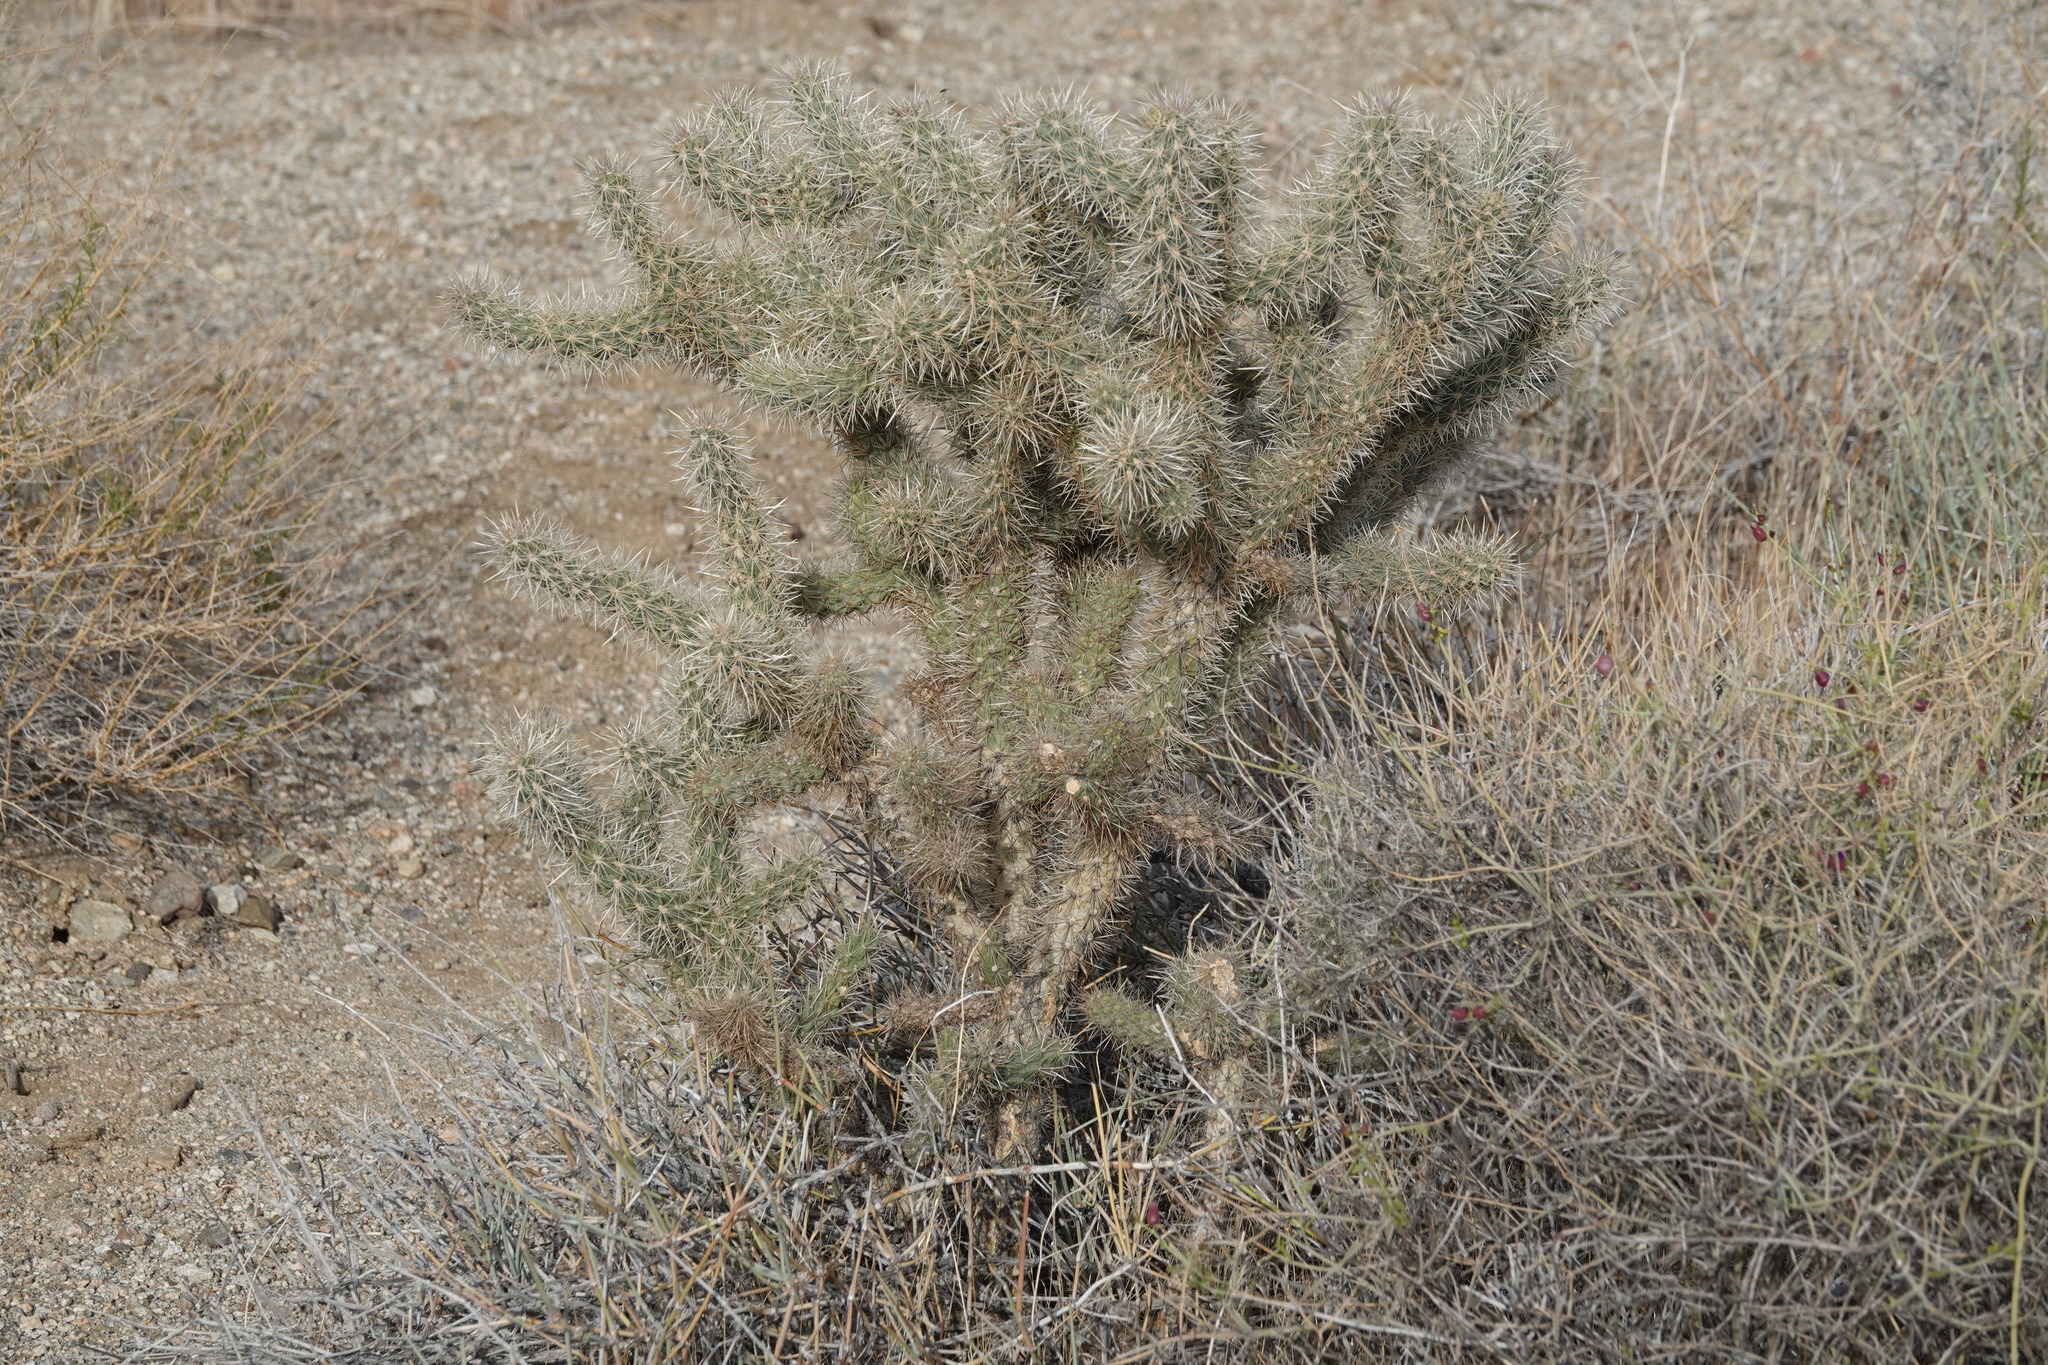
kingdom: Plantae
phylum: Tracheophyta
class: Magnoliopsida
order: Caryophyllales
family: Cactaceae
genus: Cylindropuntia
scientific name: Cylindropuntia echinocarpa
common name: Ground cholla
